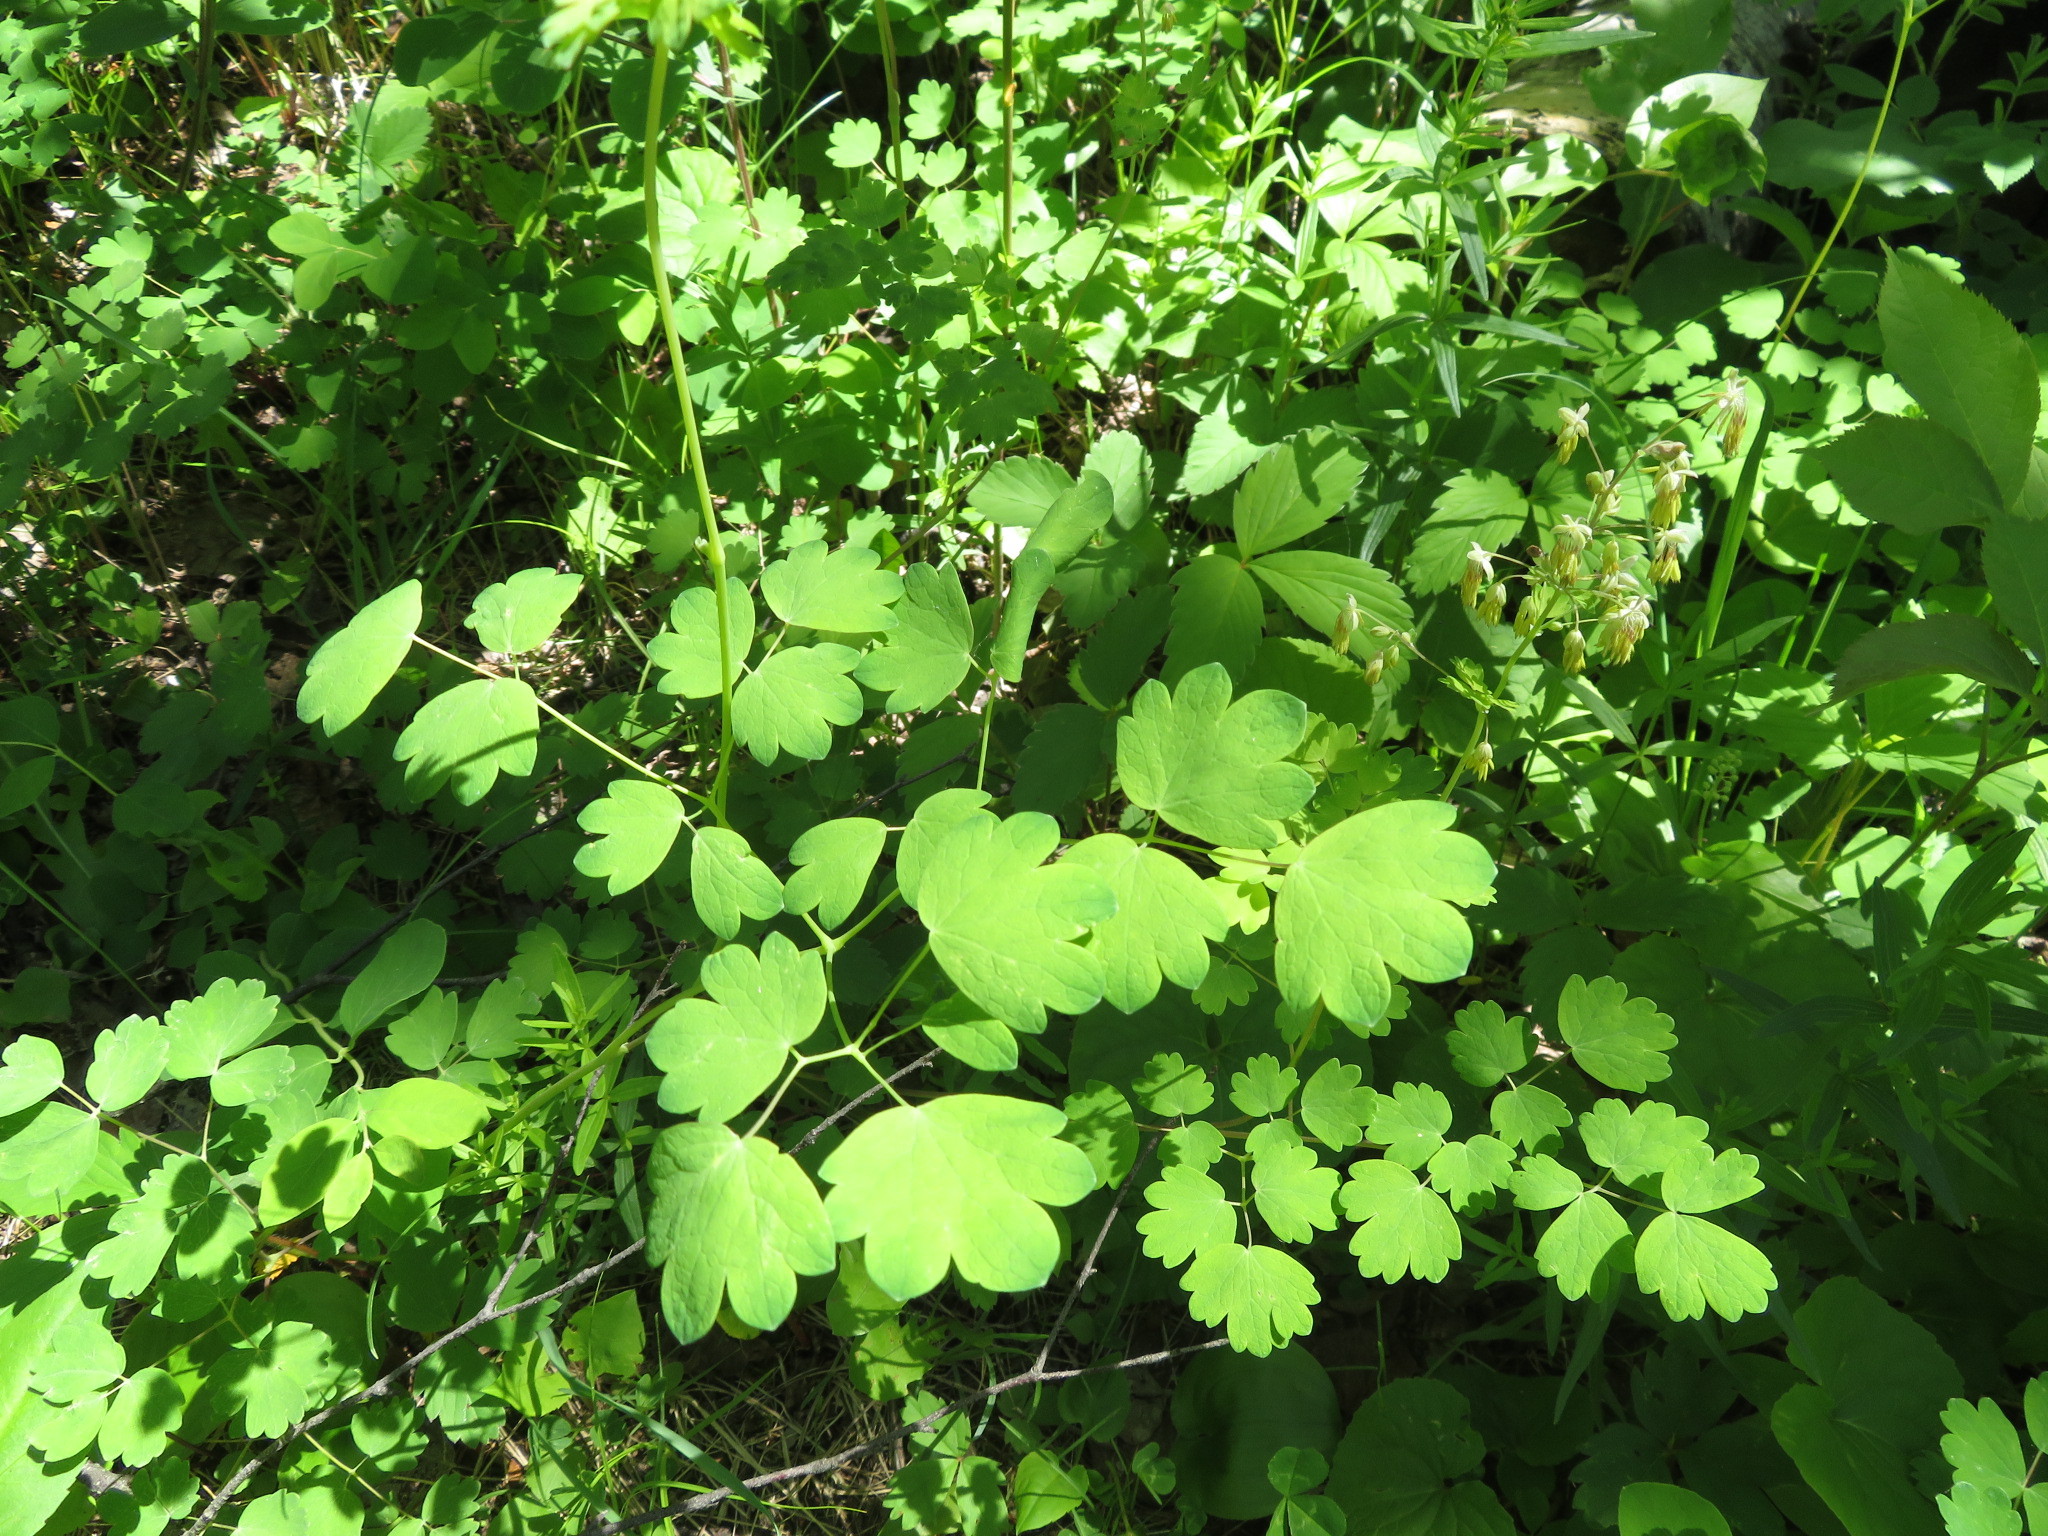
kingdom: Plantae
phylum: Tracheophyta
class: Magnoliopsida
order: Ranunculales
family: Ranunculaceae
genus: Thalictrum
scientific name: Thalictrum venulosum
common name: Early meadow-rue
